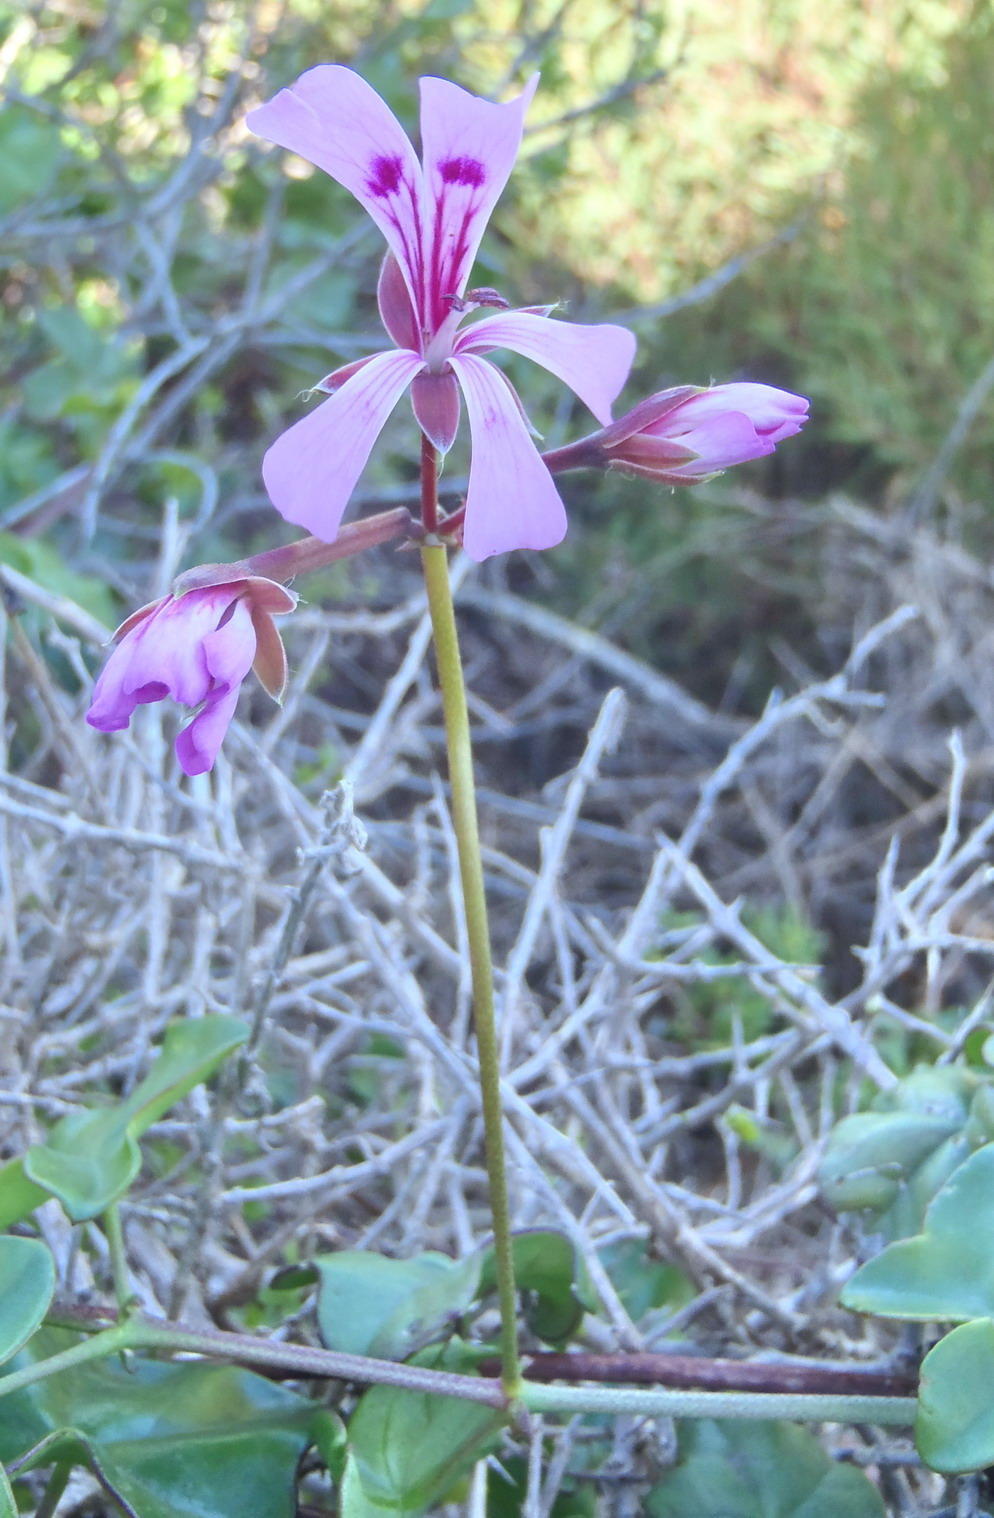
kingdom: Plantae
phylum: Tracheophyta
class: Magnoliopsida
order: Geraniales
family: Geraniaceae
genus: Pelargonium
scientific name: Pelargonium peltatum
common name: Ivyleaf geranium
